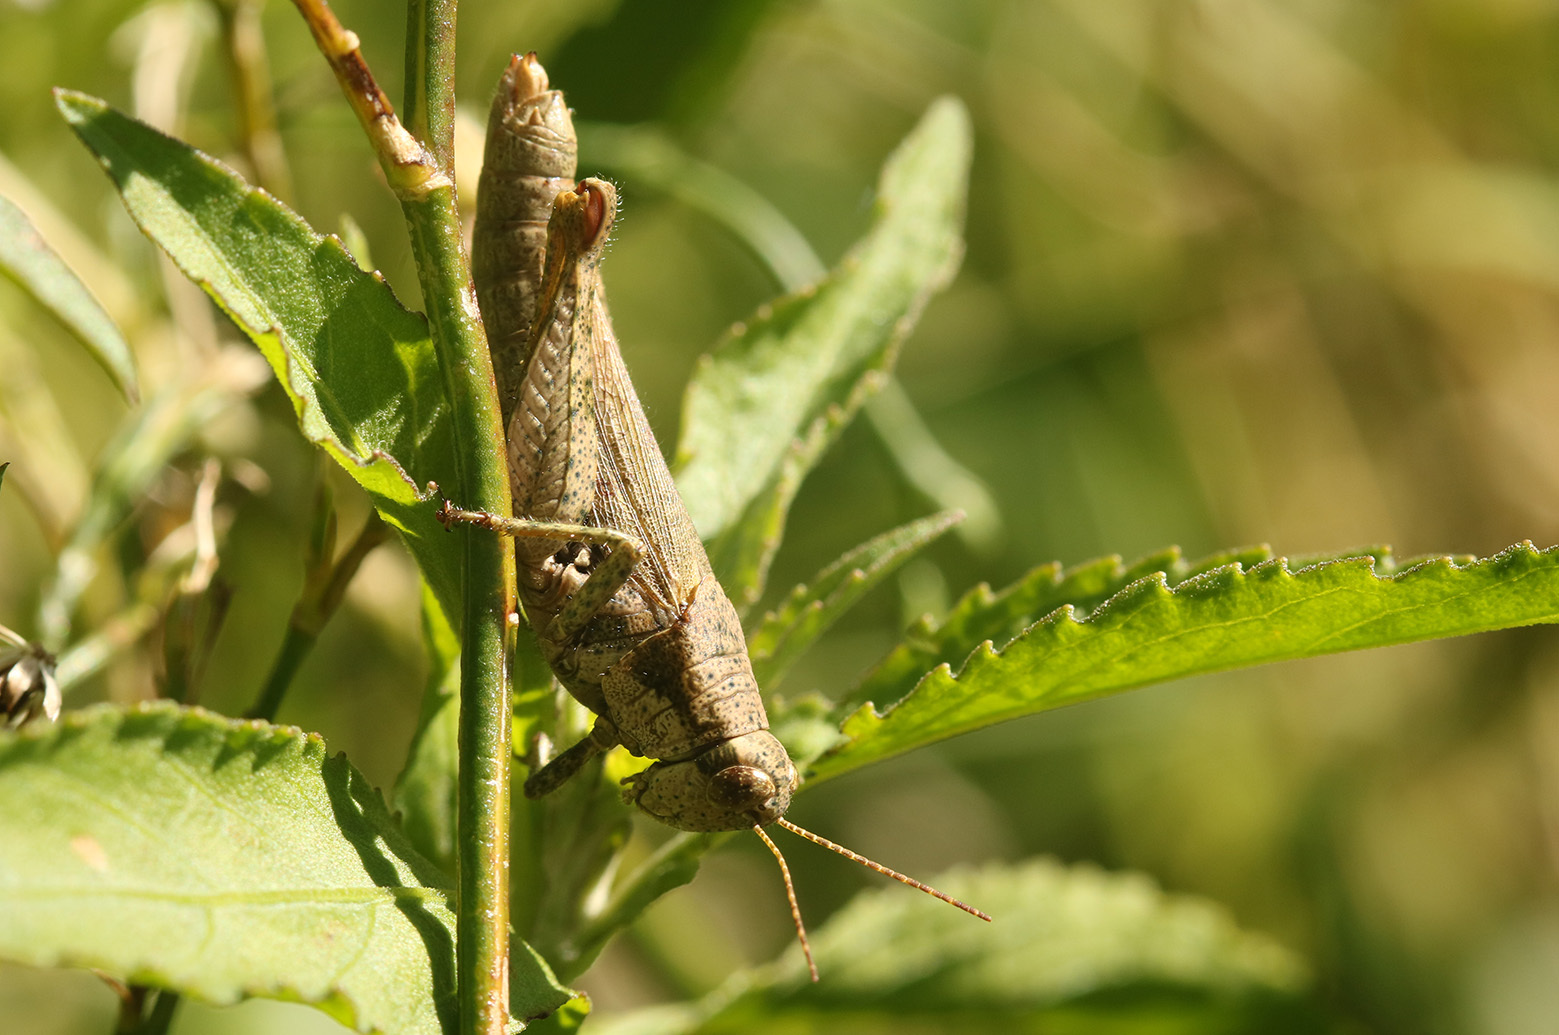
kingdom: Animalia
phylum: Arthropoda
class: Insecta
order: Orthoptera
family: Acrididae
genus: Ronderosia
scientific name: Ronderosia bergii
